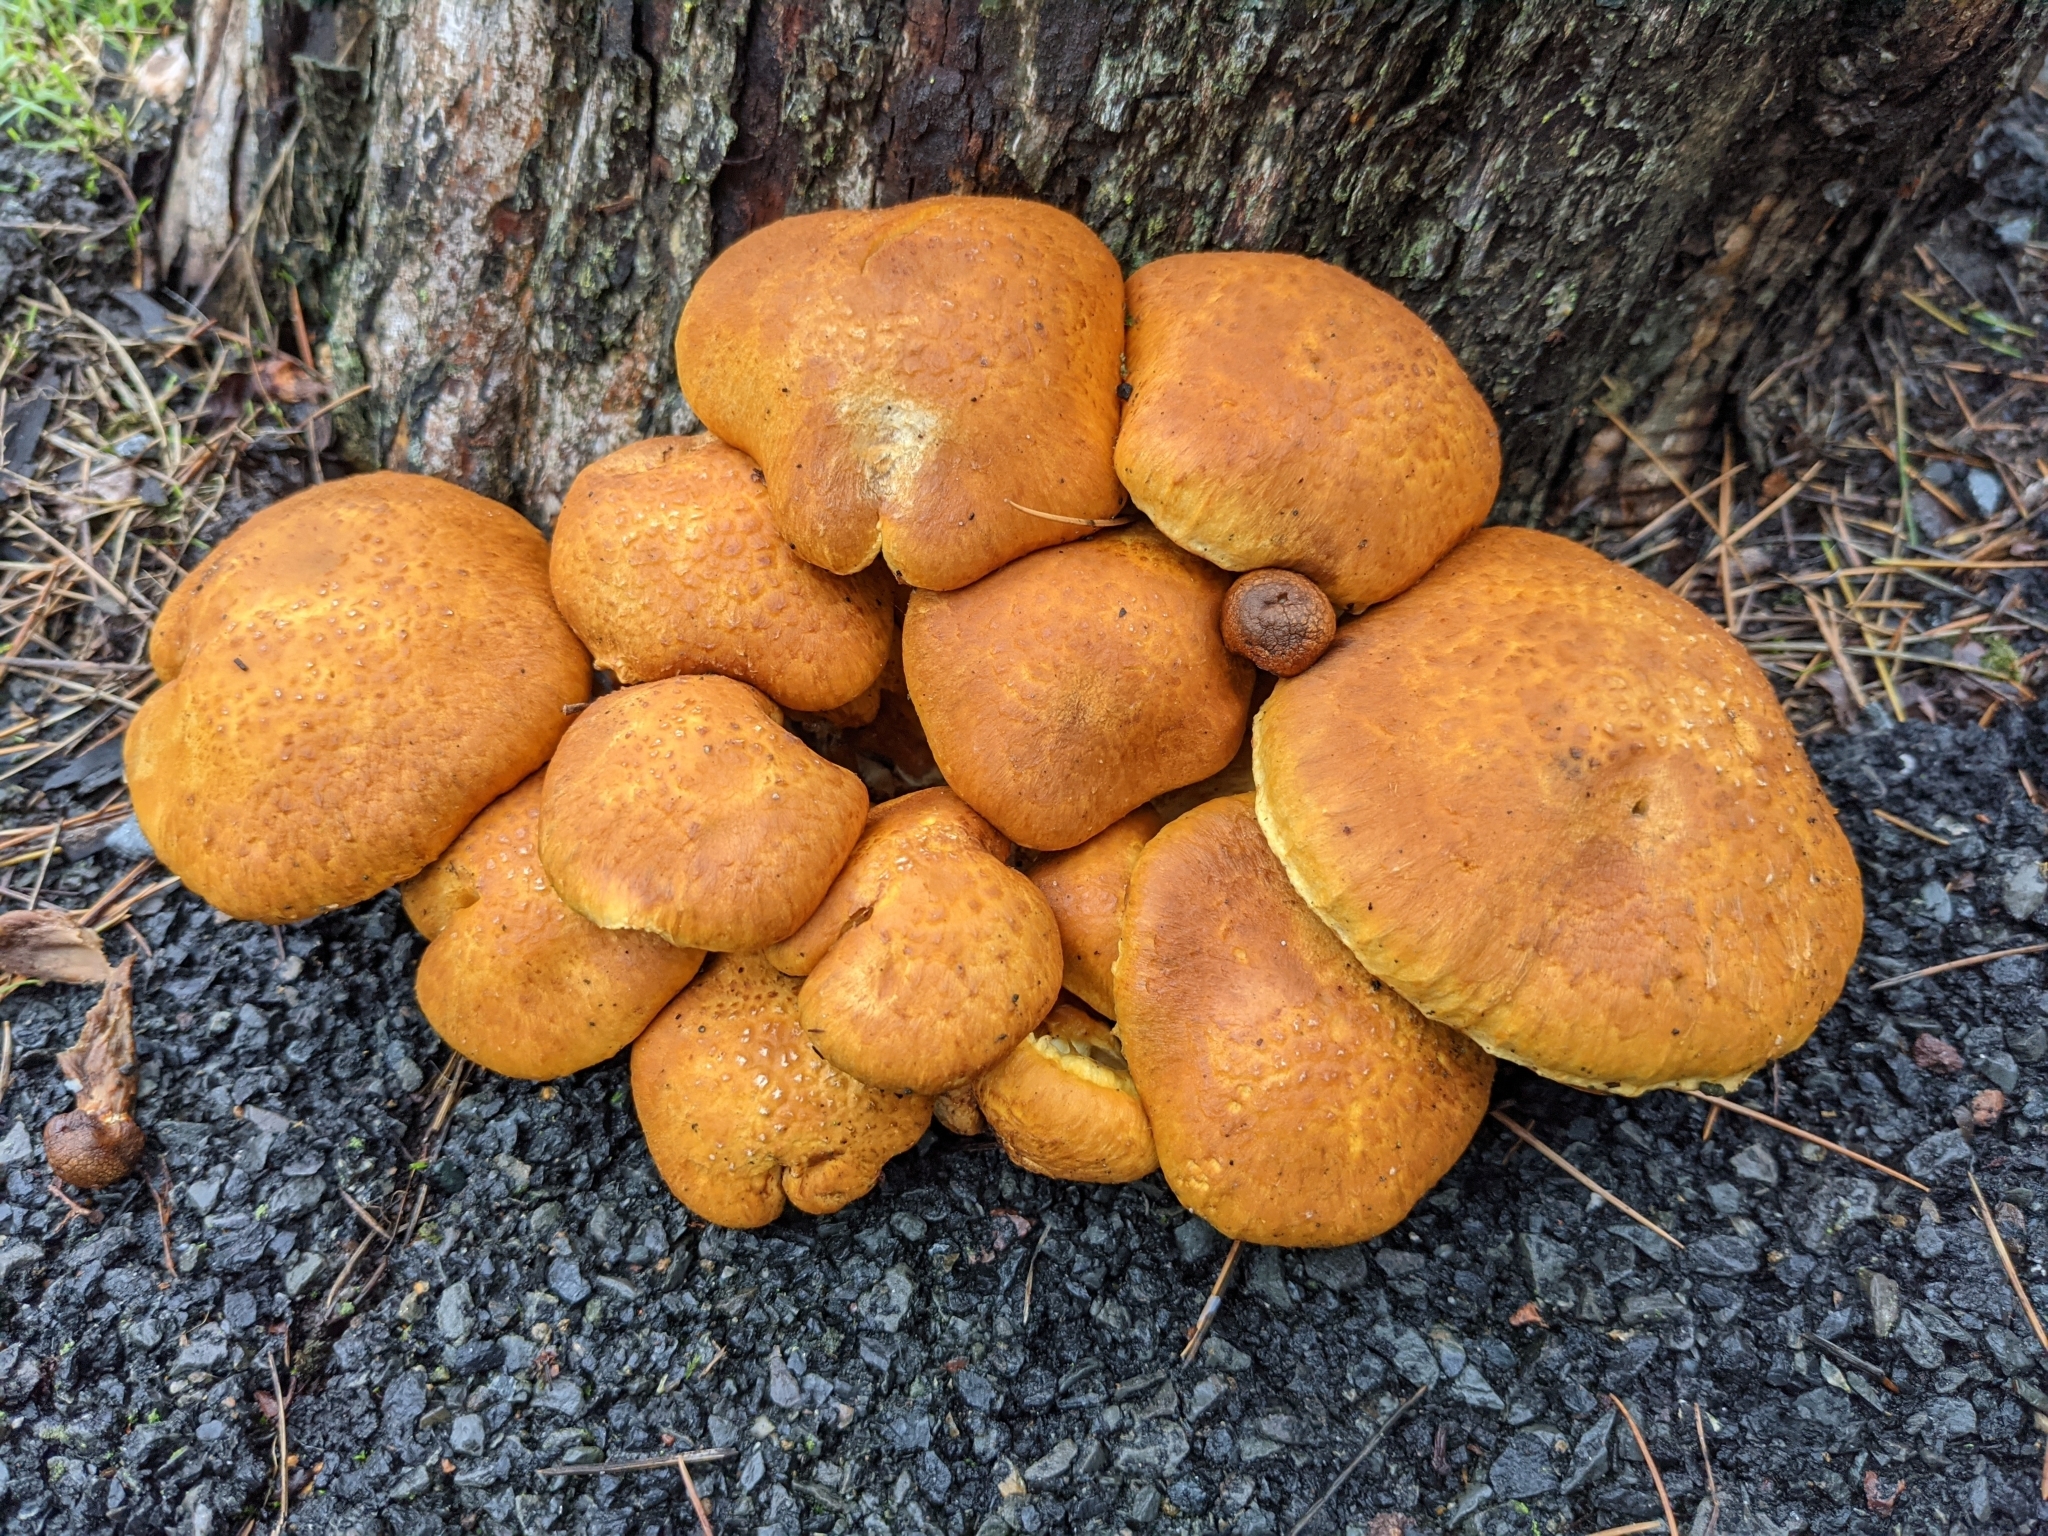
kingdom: Fungi
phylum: Basidiomycota
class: Agaricomycetes
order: Agaricales
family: Hymenogastraceae
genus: Gymnopilus
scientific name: Gymnopilus junonius
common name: Spectacular rustgill
